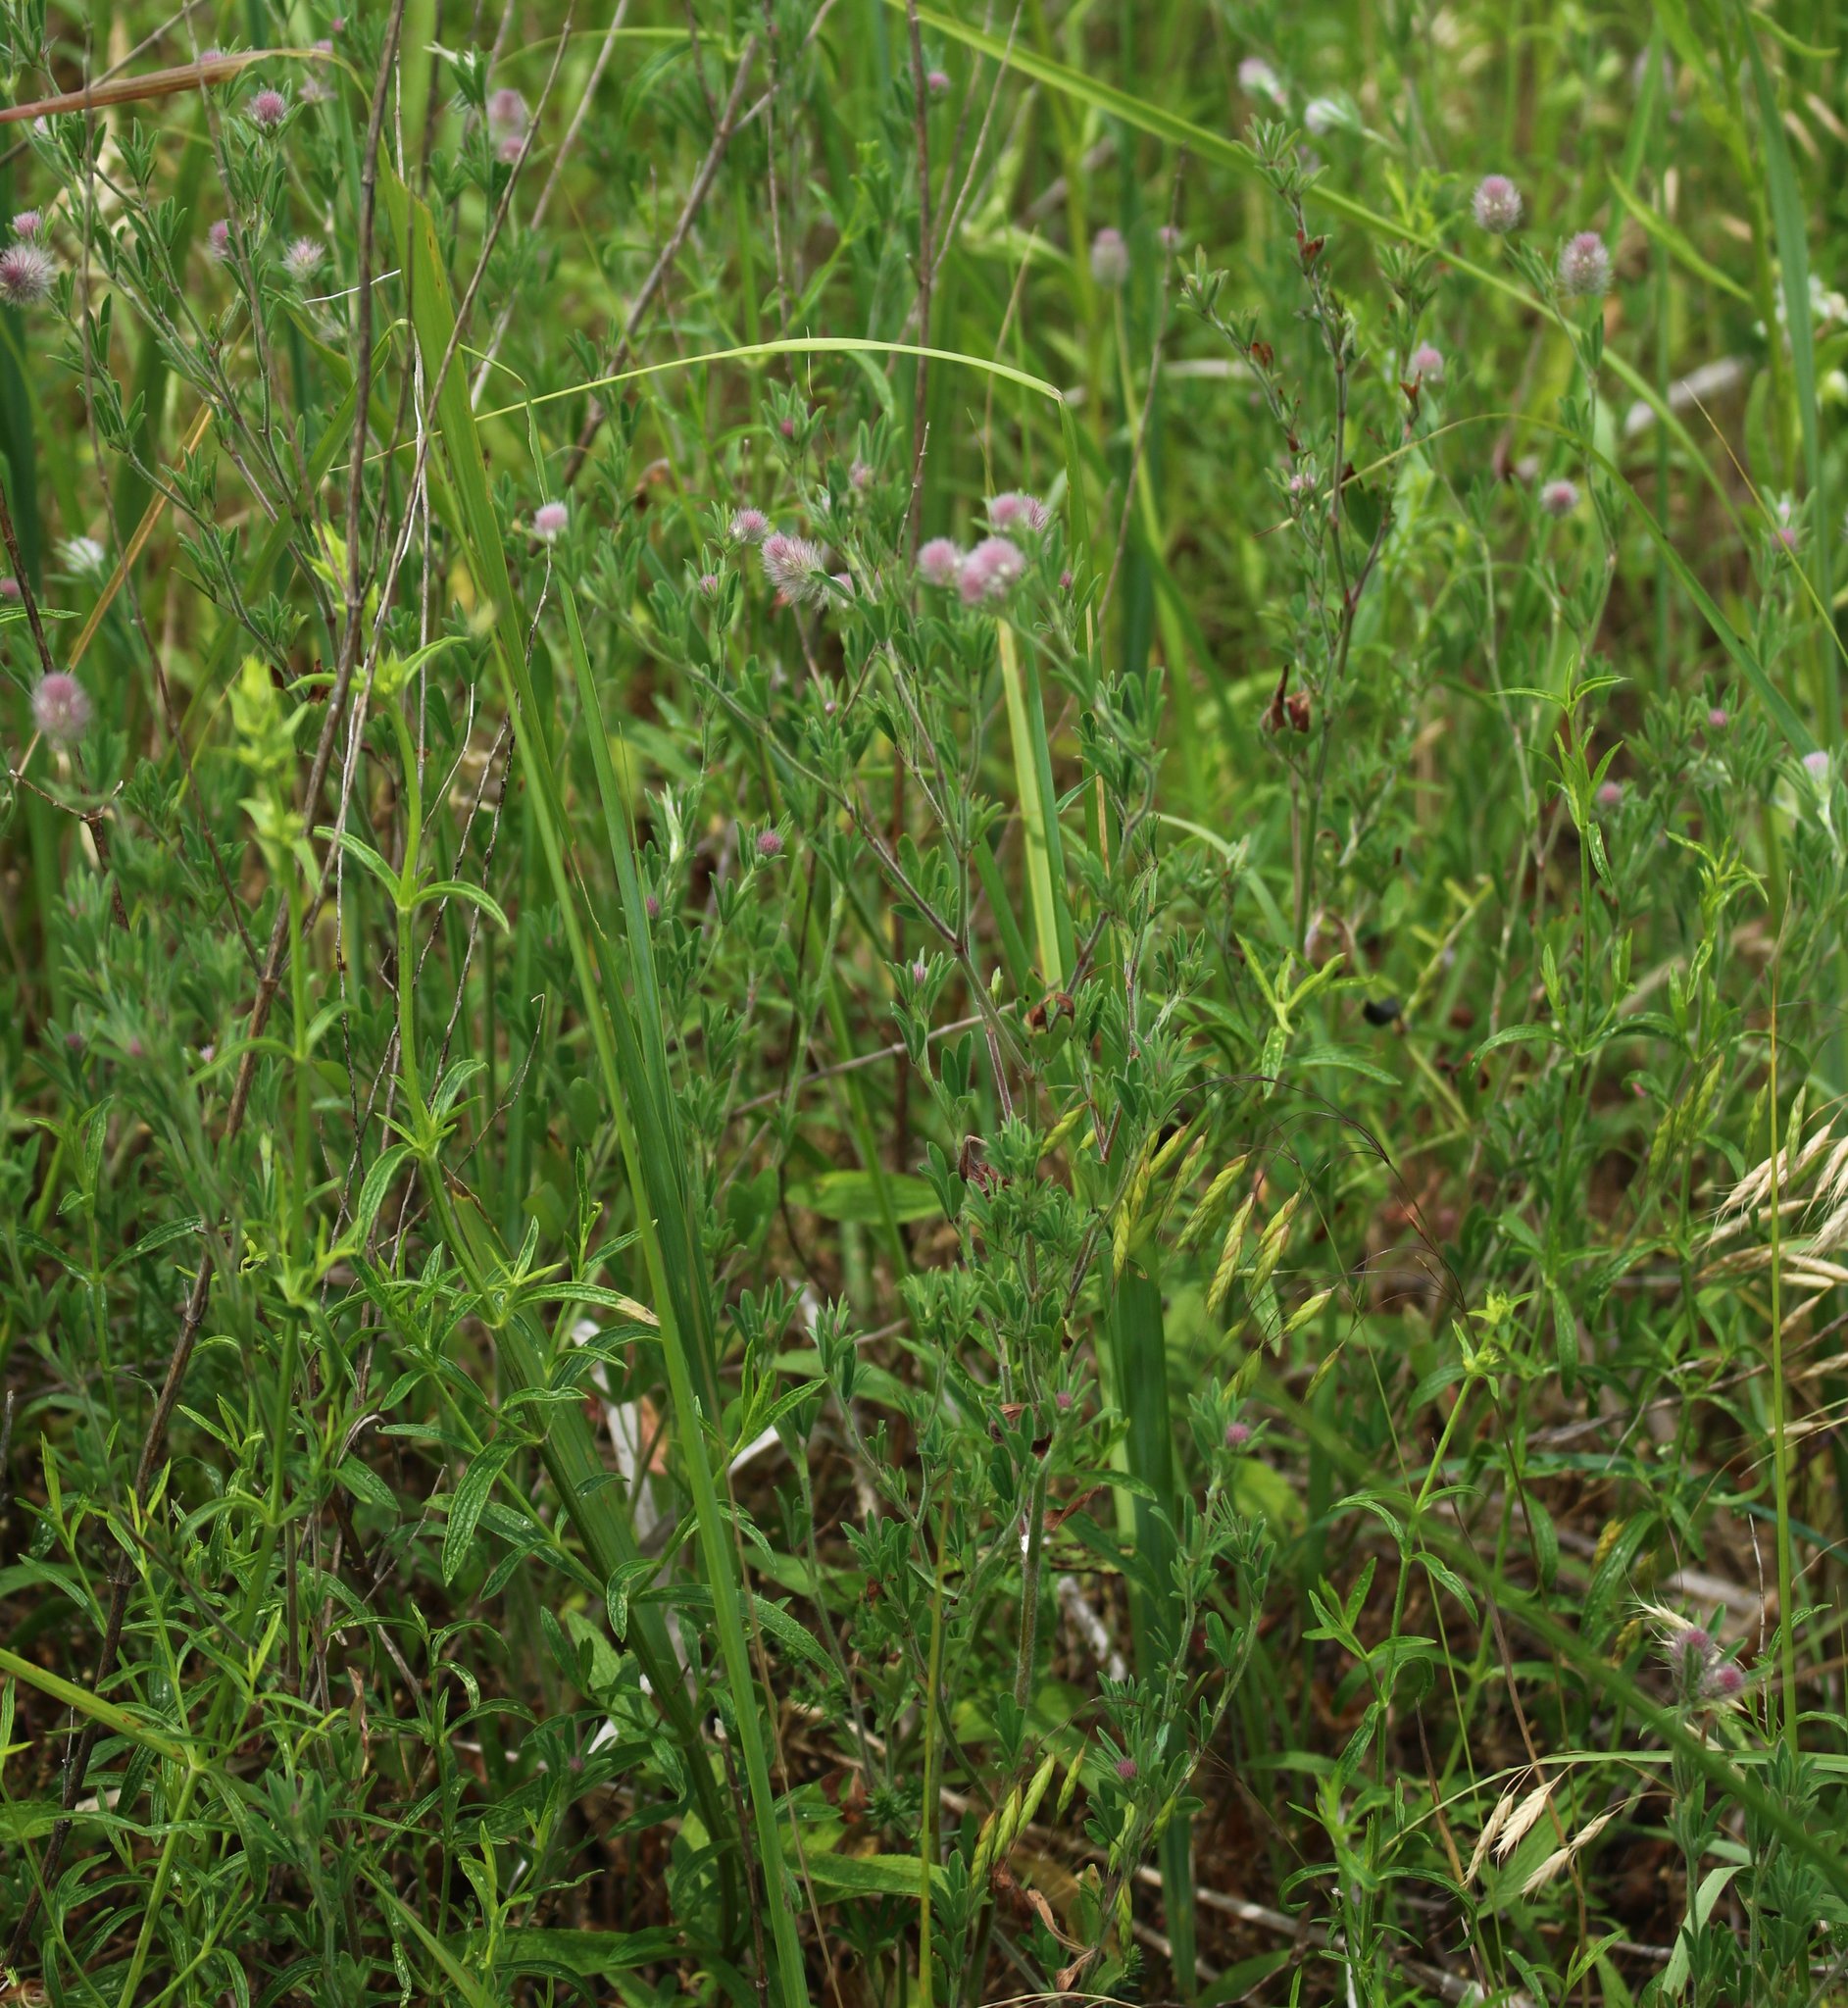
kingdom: Plantae
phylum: Tracheophyta
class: Magnoliopsida
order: Fabales
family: Fabaceae
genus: Trifolium
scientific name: Trifolium arvense
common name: Hare's-foot clover
